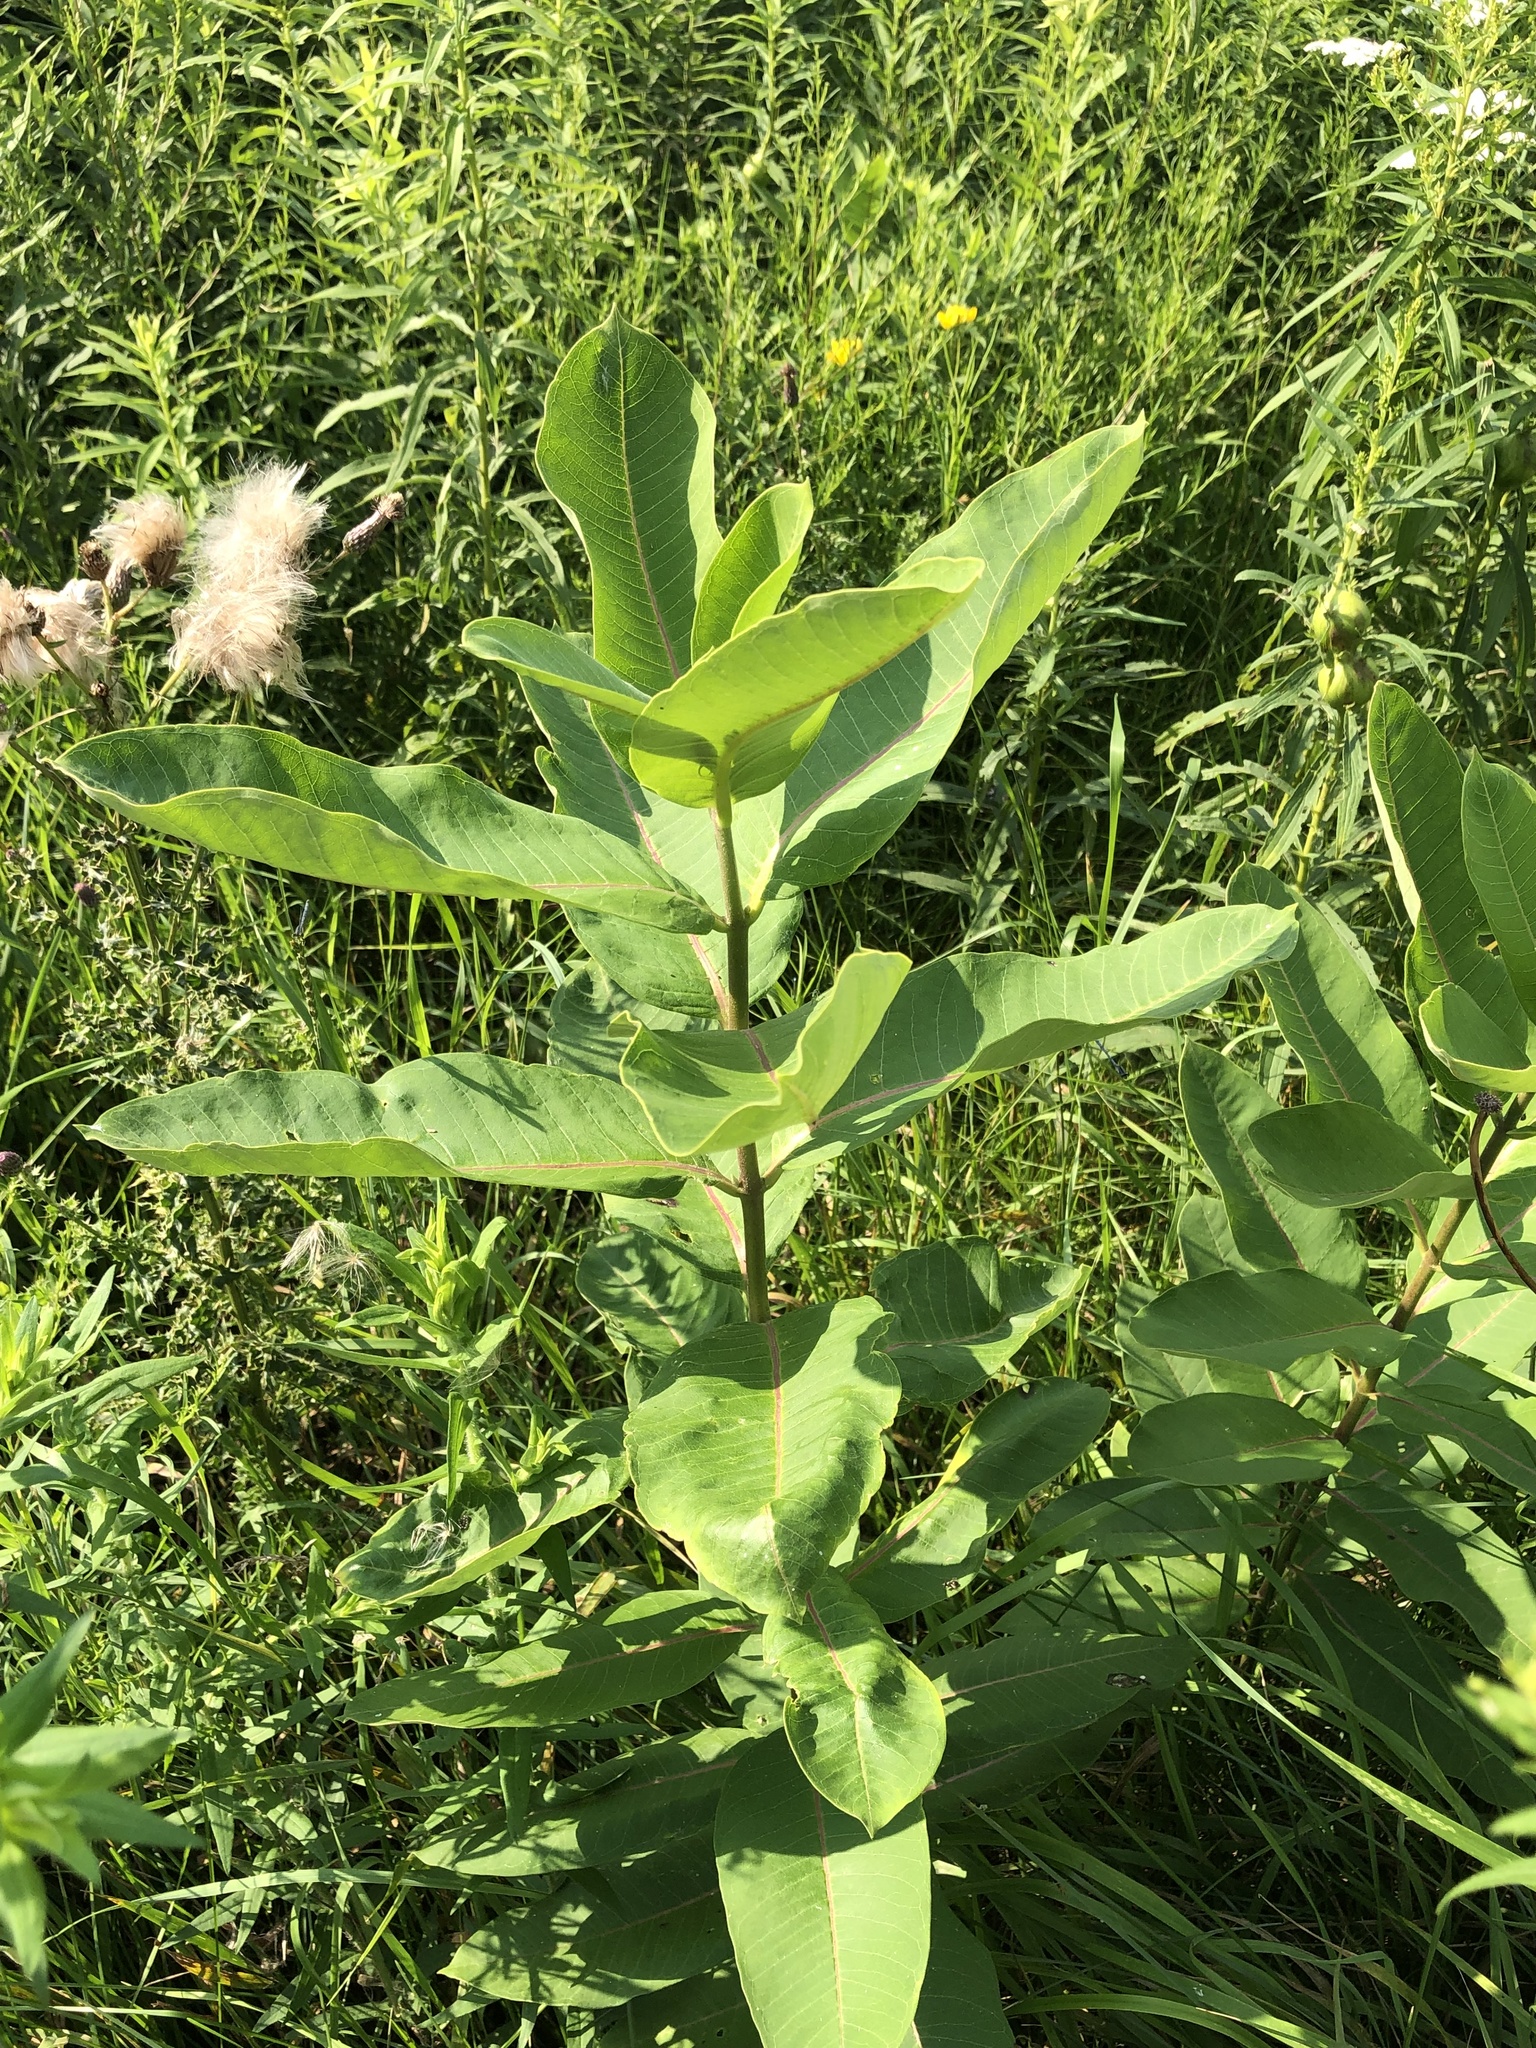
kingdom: Plantae
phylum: Tracheophyta
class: Magnoliopsida
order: Gentianales
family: Apocynaceae
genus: Asclepias
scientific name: Asclepias syriaca
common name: Common milkweed
